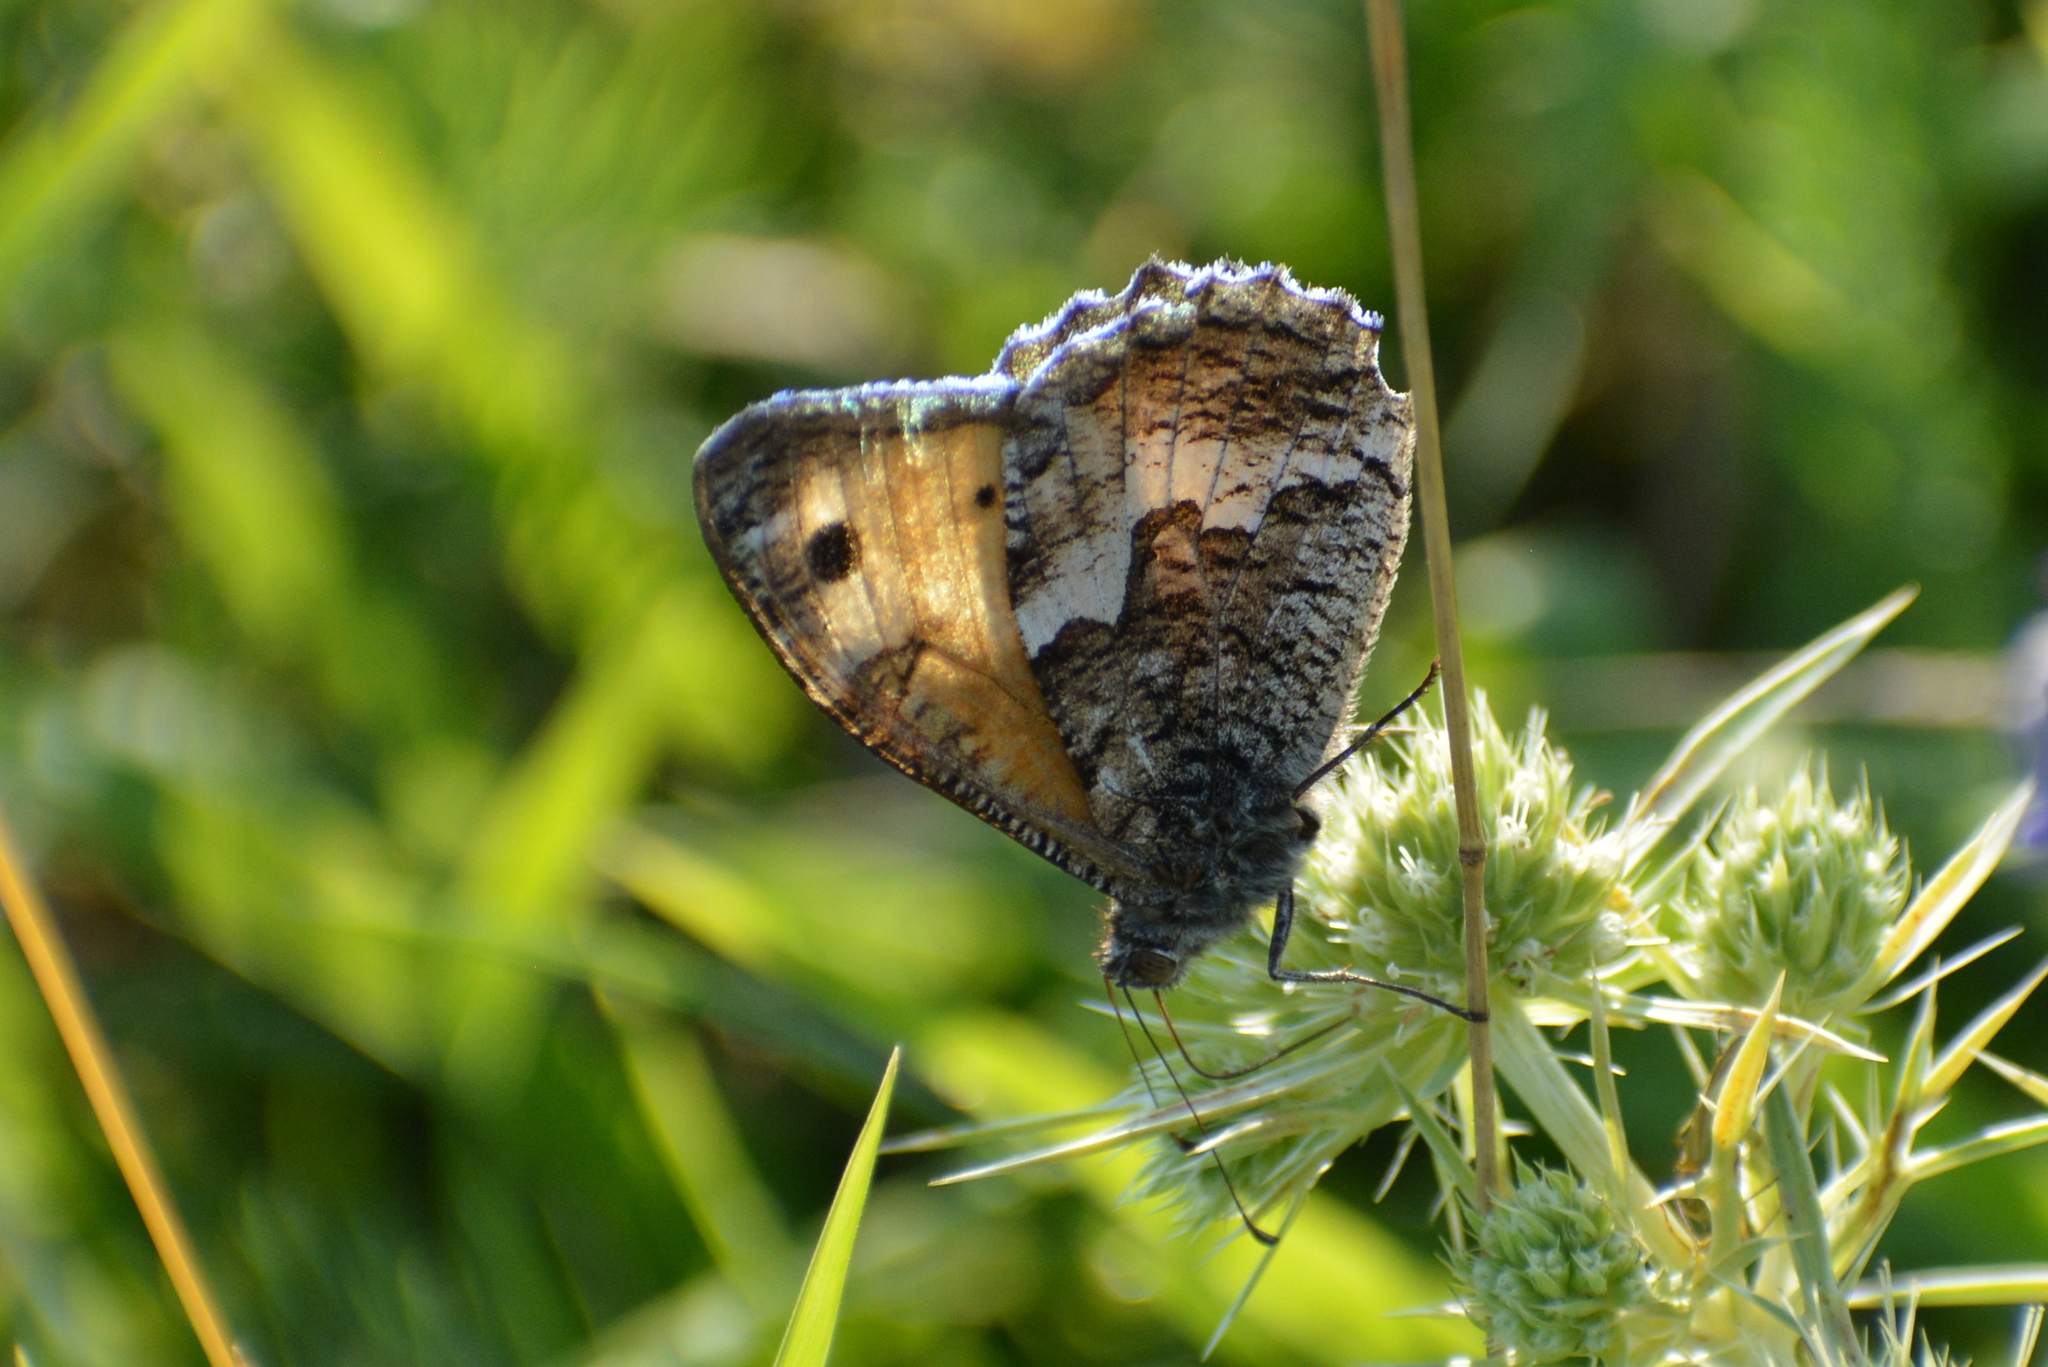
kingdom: Animalia
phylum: Arthropoda
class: Insecta
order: Lepidoptera
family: Nymphalidae
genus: Hipparchia
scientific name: Hipparchia semele
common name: Grayling
